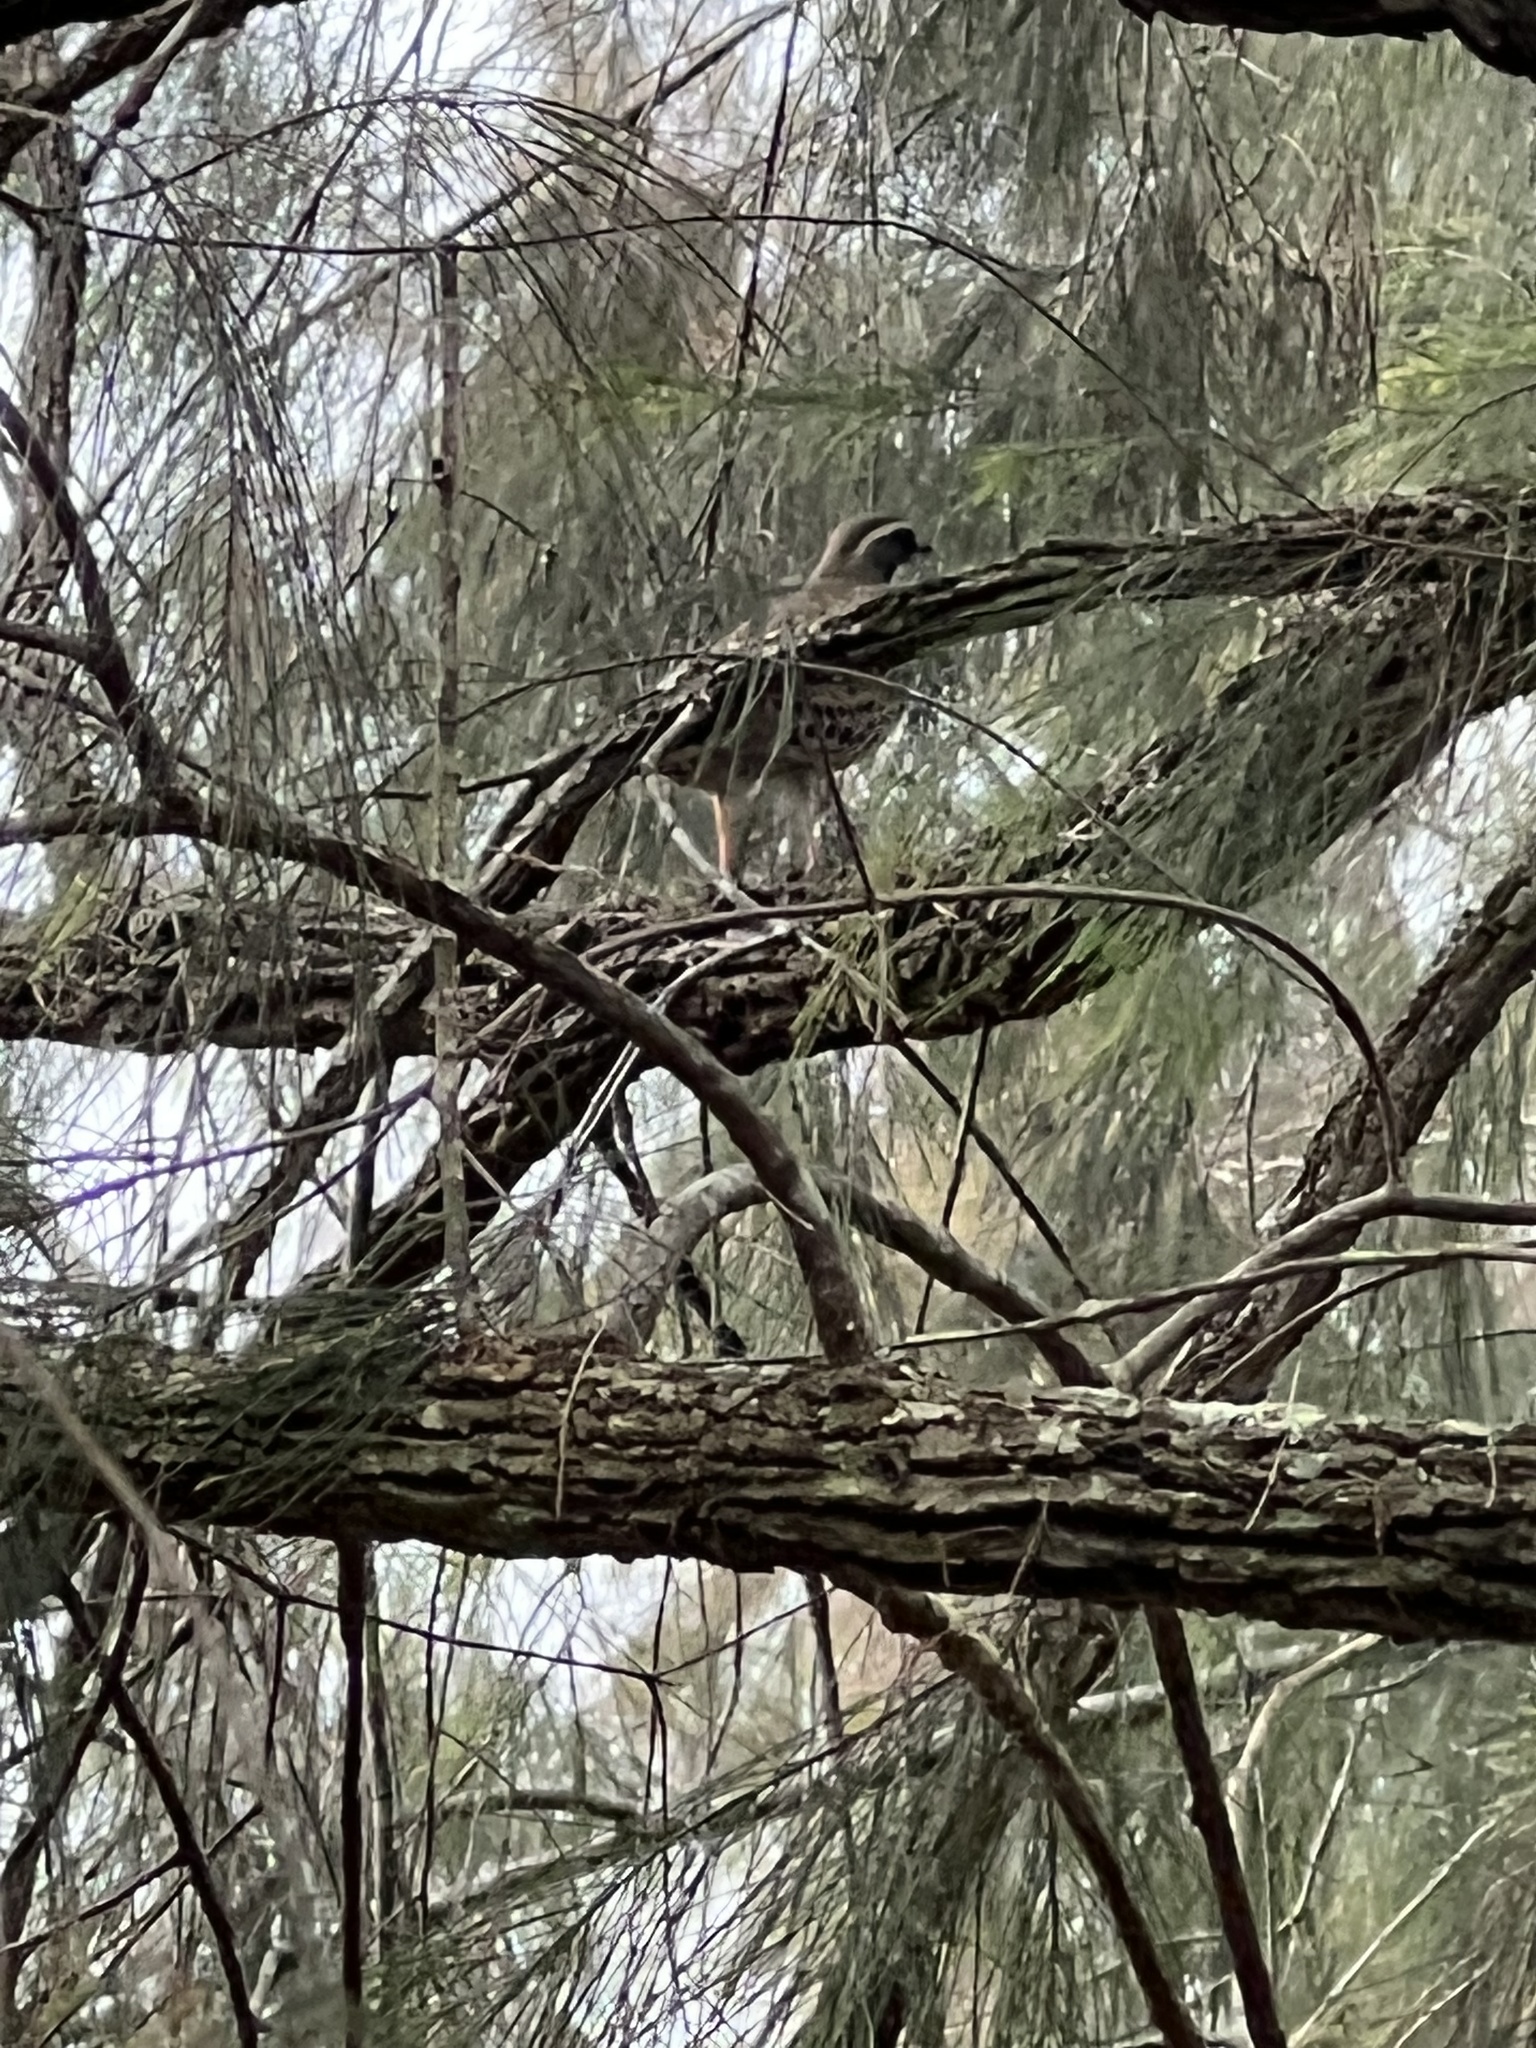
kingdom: Animalia
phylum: Chordata
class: Aves
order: Passeriformes
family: Psophodidae
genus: Cinclosoma
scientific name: Cinclosoma punctatum
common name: Spotted quail-thrush
